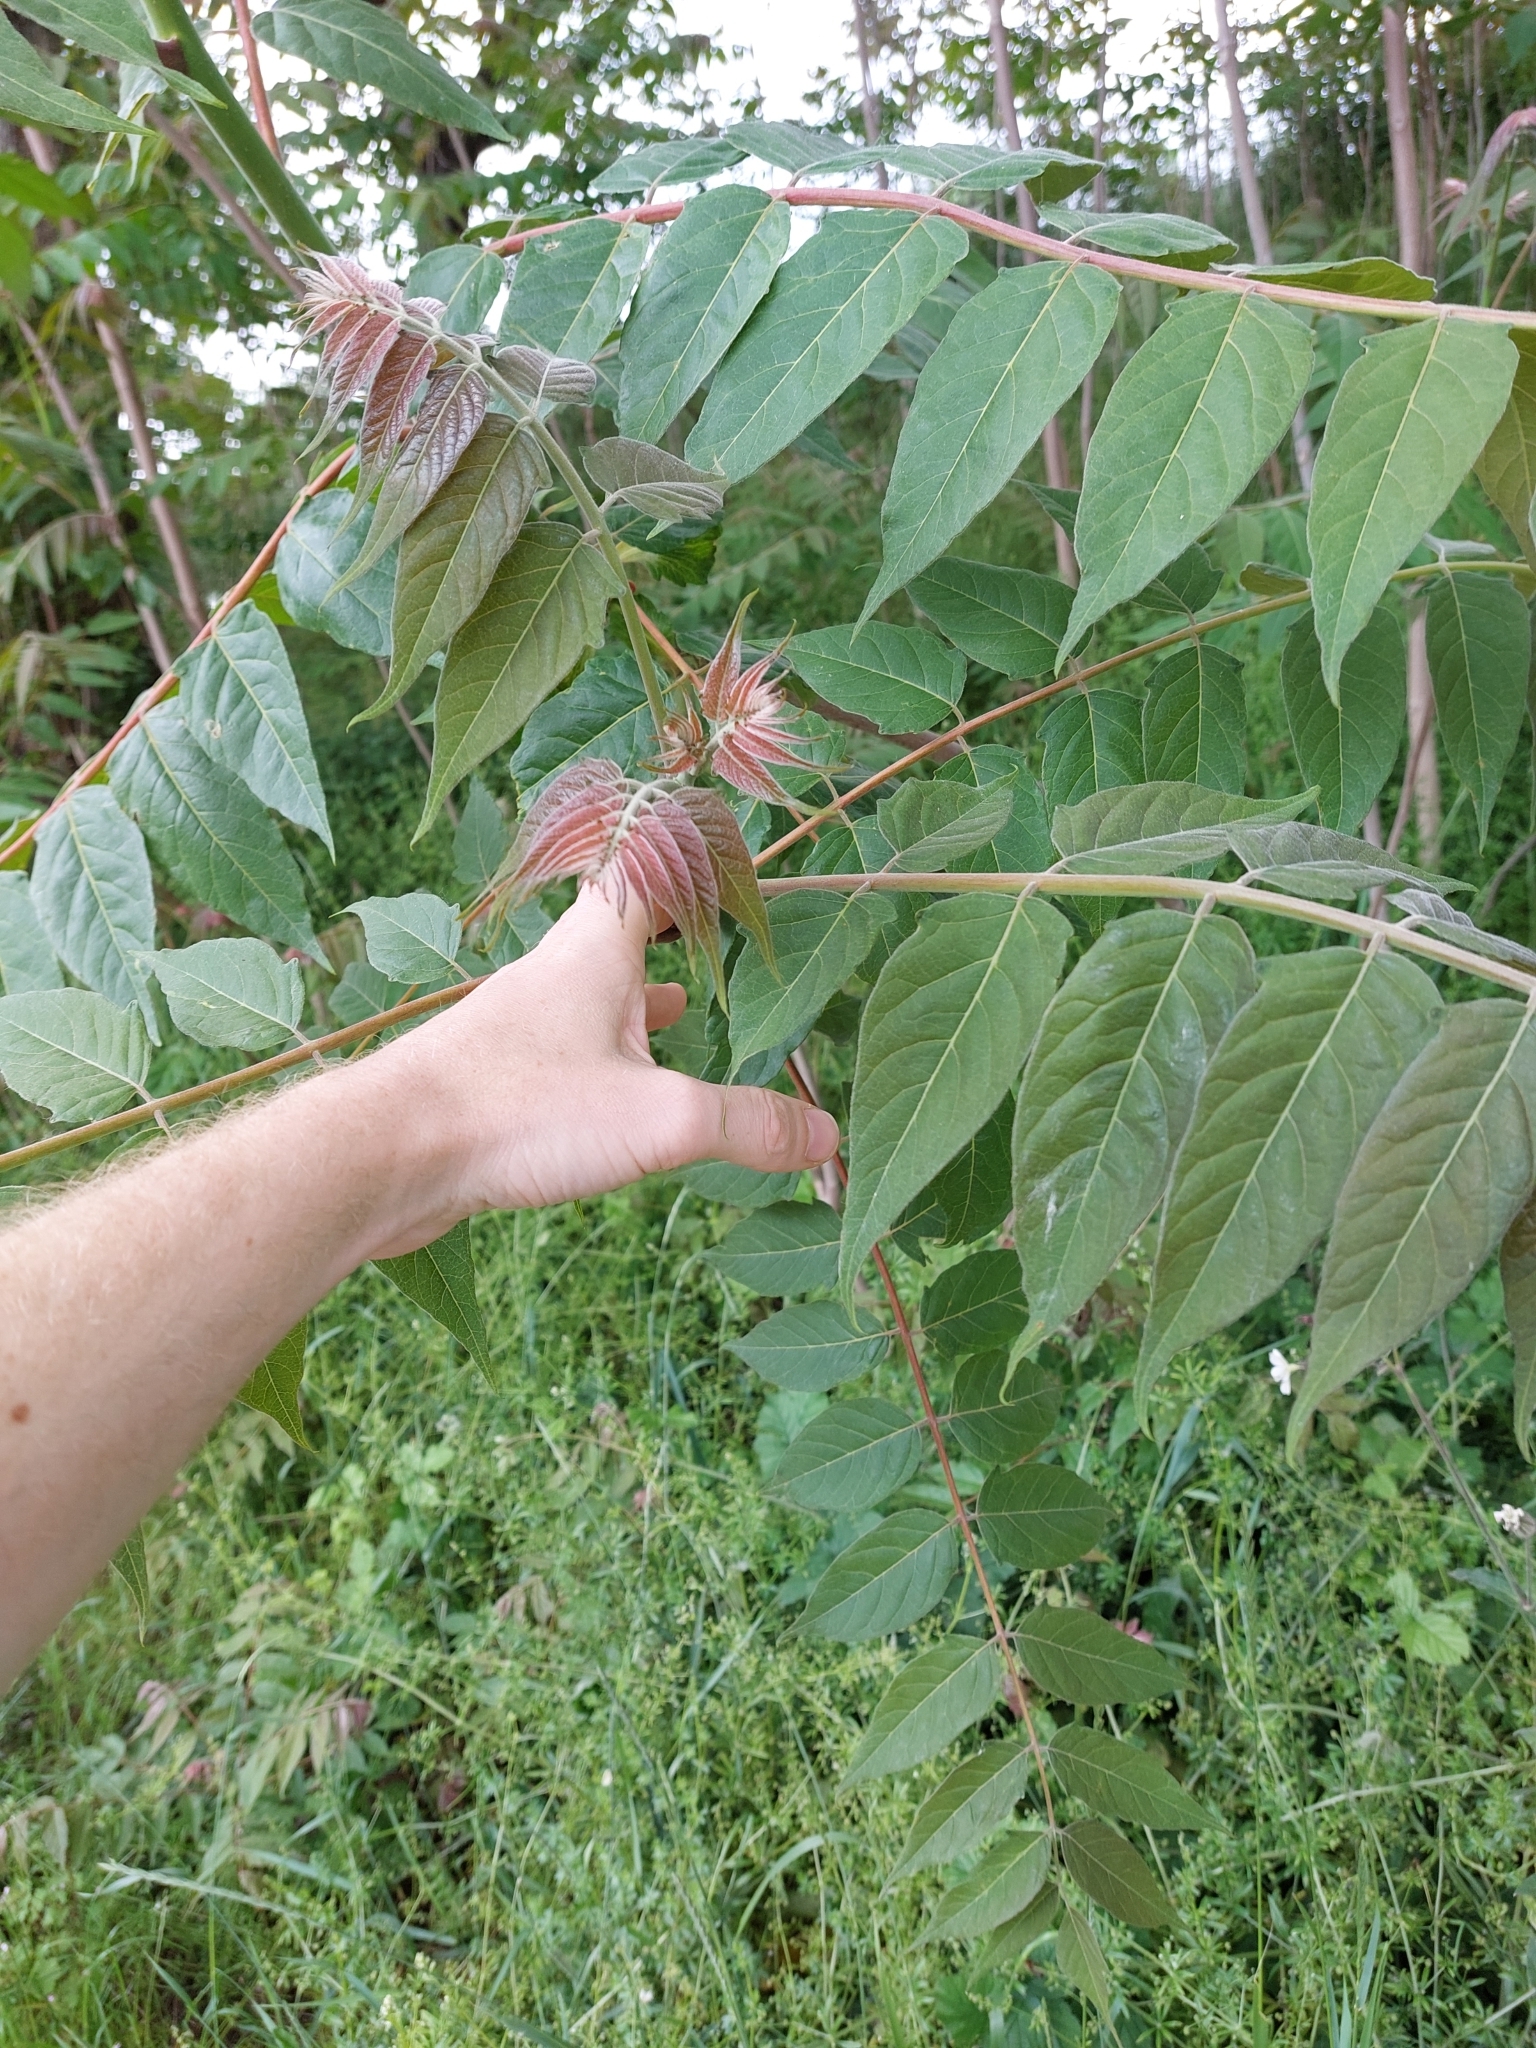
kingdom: Plantae
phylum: Tracheophyta
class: Magnoliopsida
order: Sapindales
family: Simaroubaceae
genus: Ailanthus
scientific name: Ailanthus altissima
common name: Tree-of-heaven
